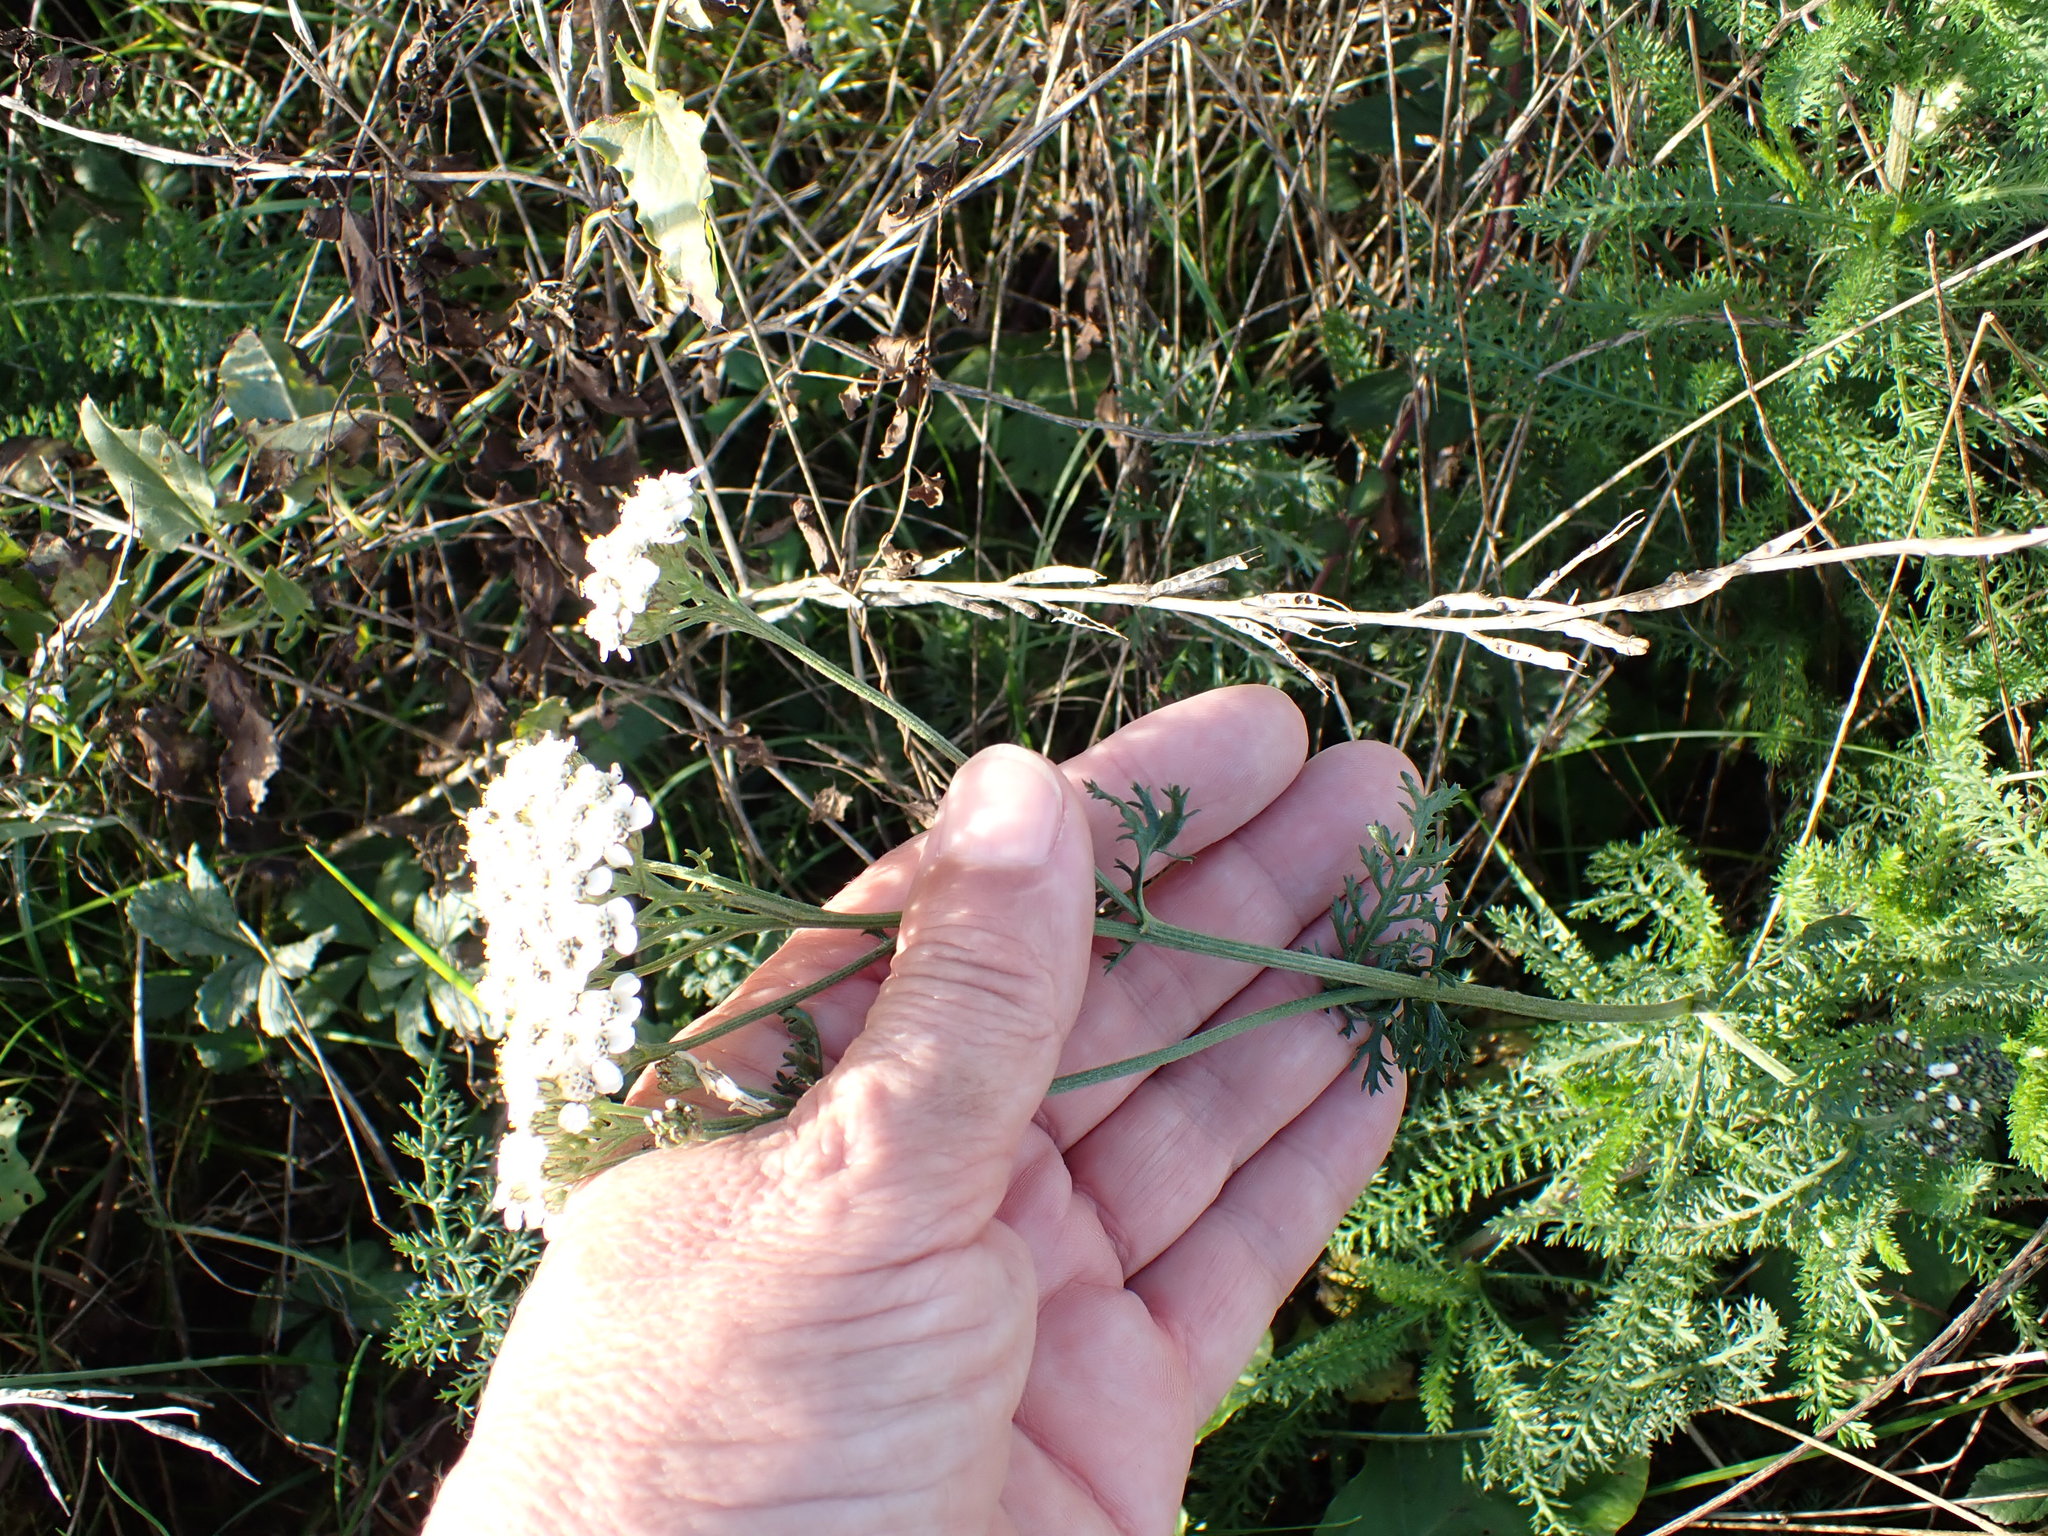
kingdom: Plantae
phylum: Tracheophyta
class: Magnoliopsida
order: Asterales
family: Asteraceae
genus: Achillea
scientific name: Achillea millefolium
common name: Yarrow
